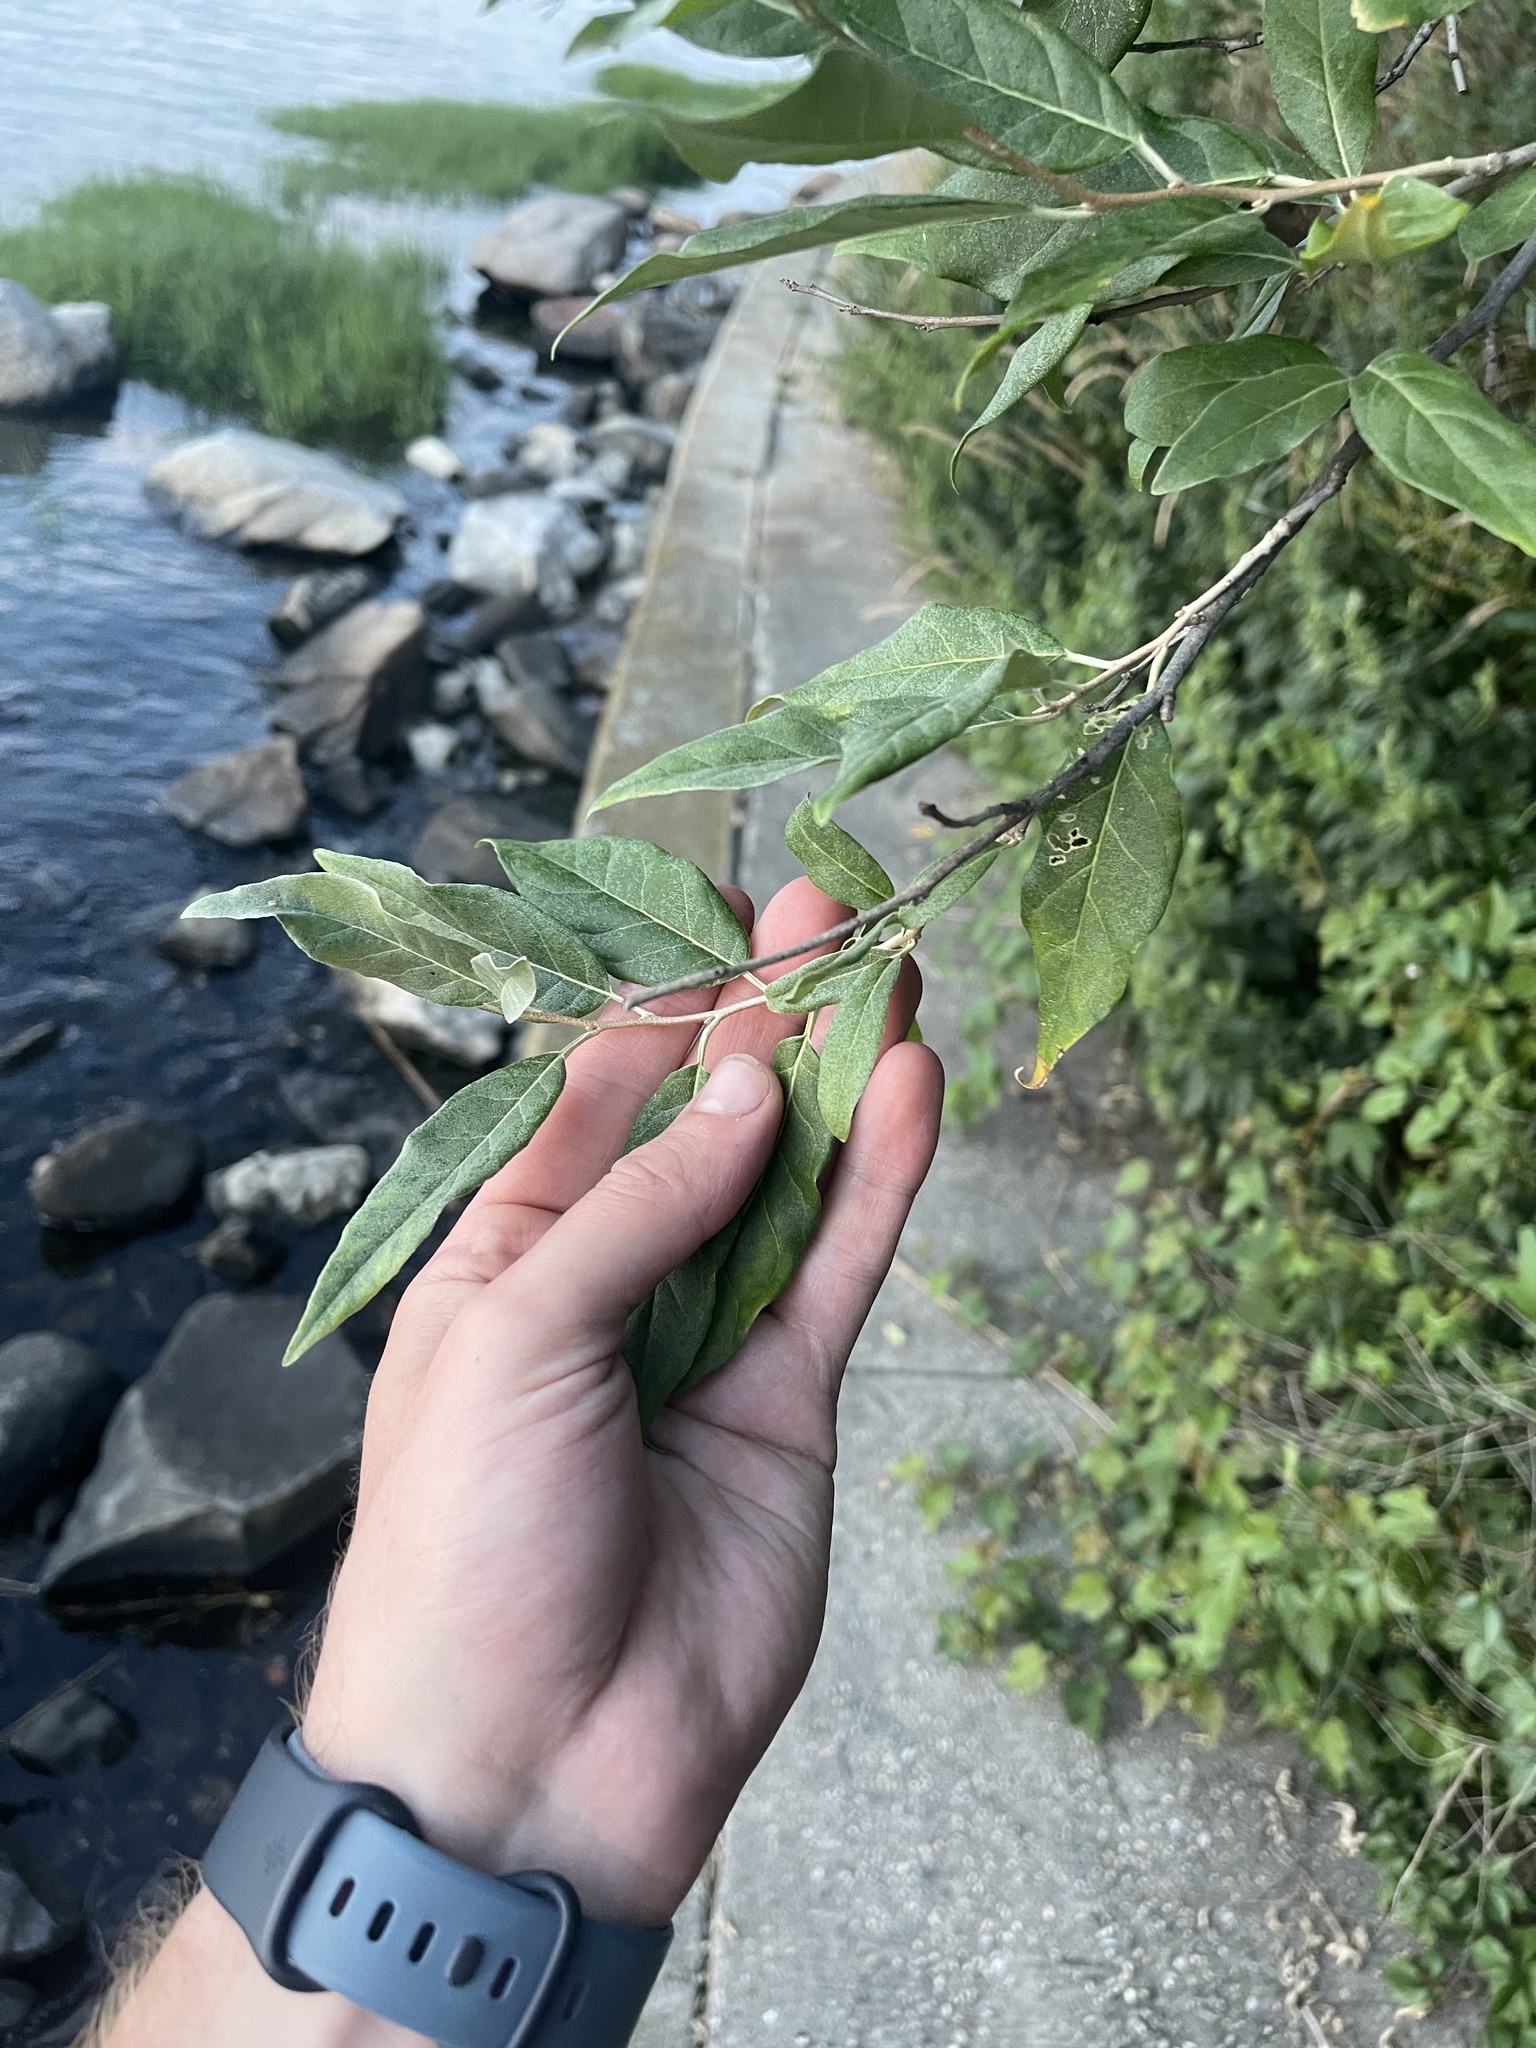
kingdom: Plantae
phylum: Tracheophyta
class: Magnoliopsida
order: Rosales
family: Elaeagnaceae
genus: Elaeagnus
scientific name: Elaeagnus umbellata
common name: Autumn olive
